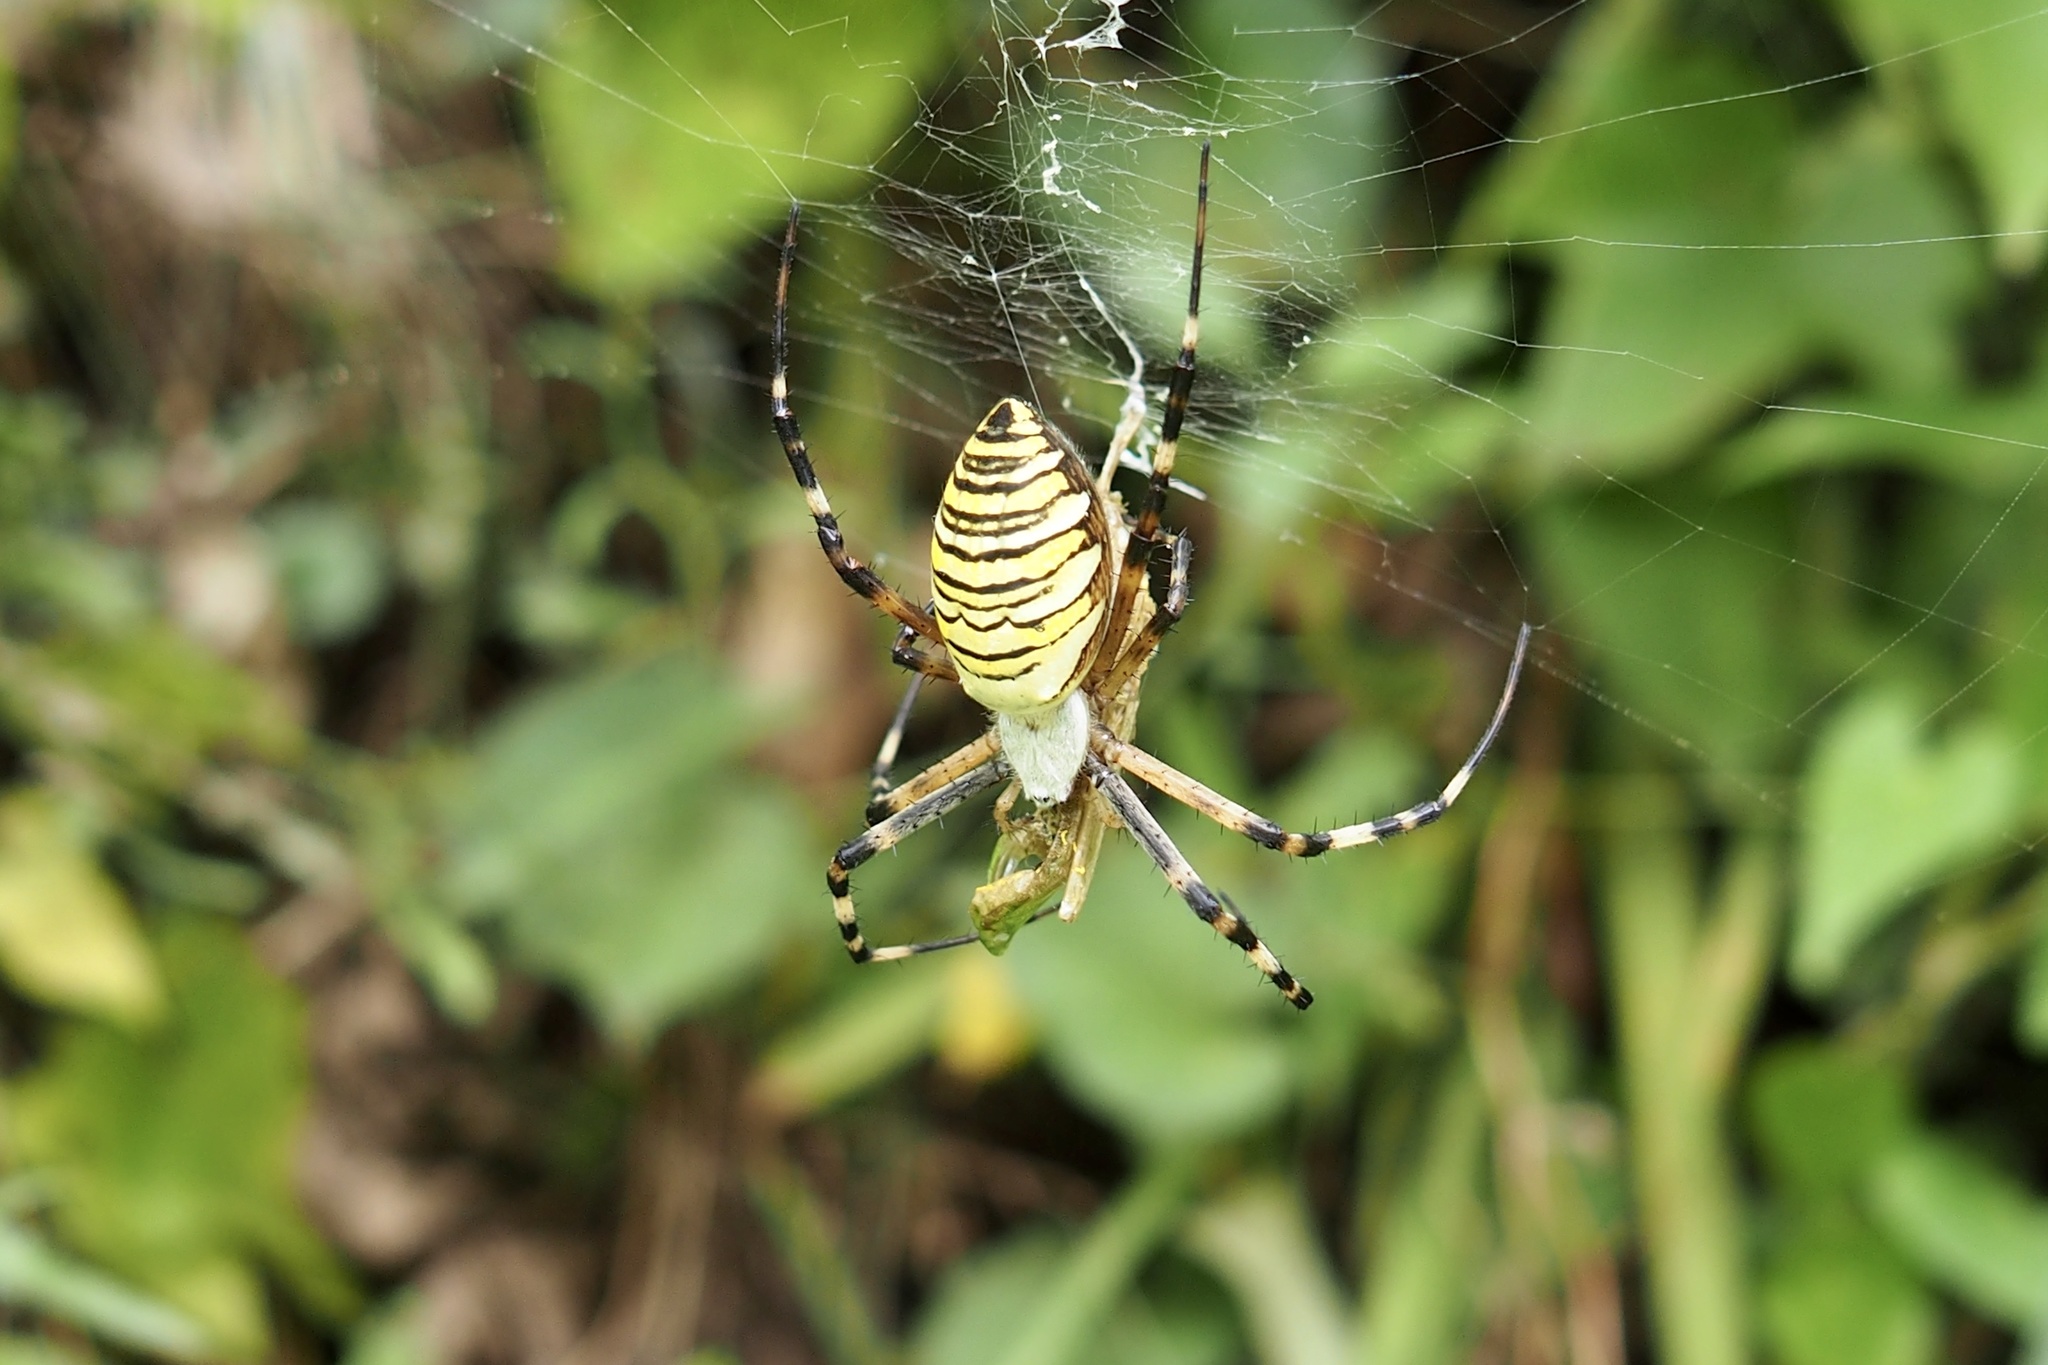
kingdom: Animalia
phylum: Arthropoda
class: Arachnida
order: Araneae
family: Araneidae
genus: Argiope
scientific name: Argiope bruennichi
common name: Wasp spider
